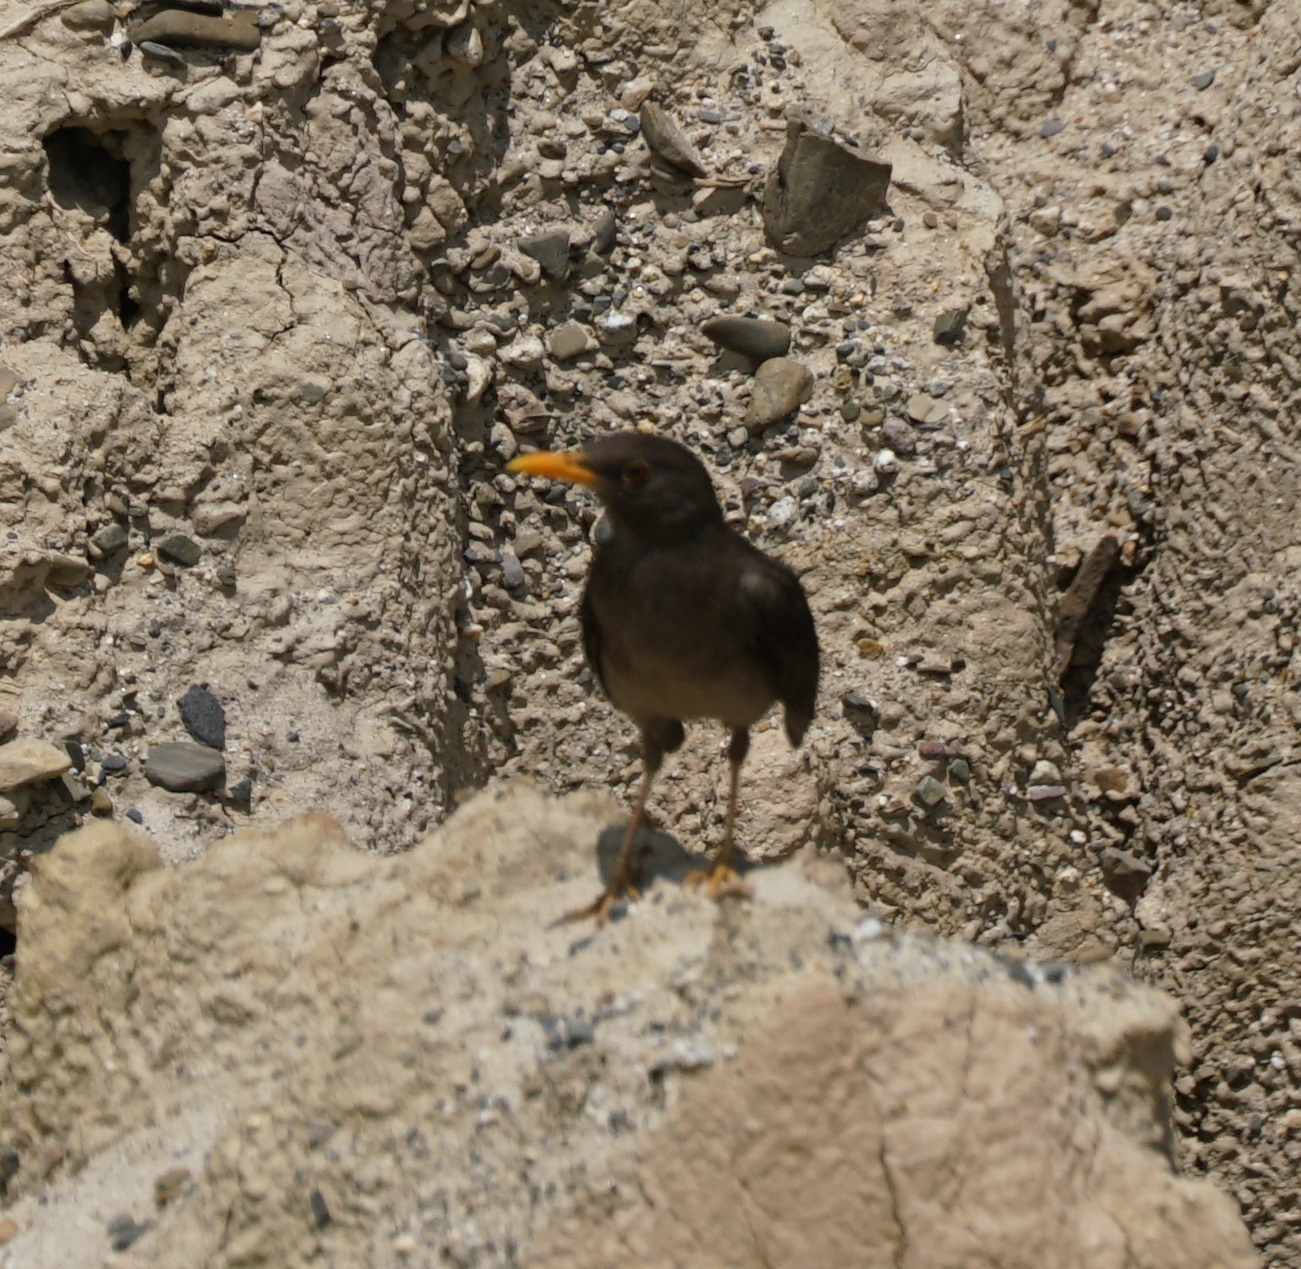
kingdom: Animalia
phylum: Chordata
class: Aves
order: Passeriformes
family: Turdidae
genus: Turdus
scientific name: Turdus chiguanco
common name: Chiguanco thrush
